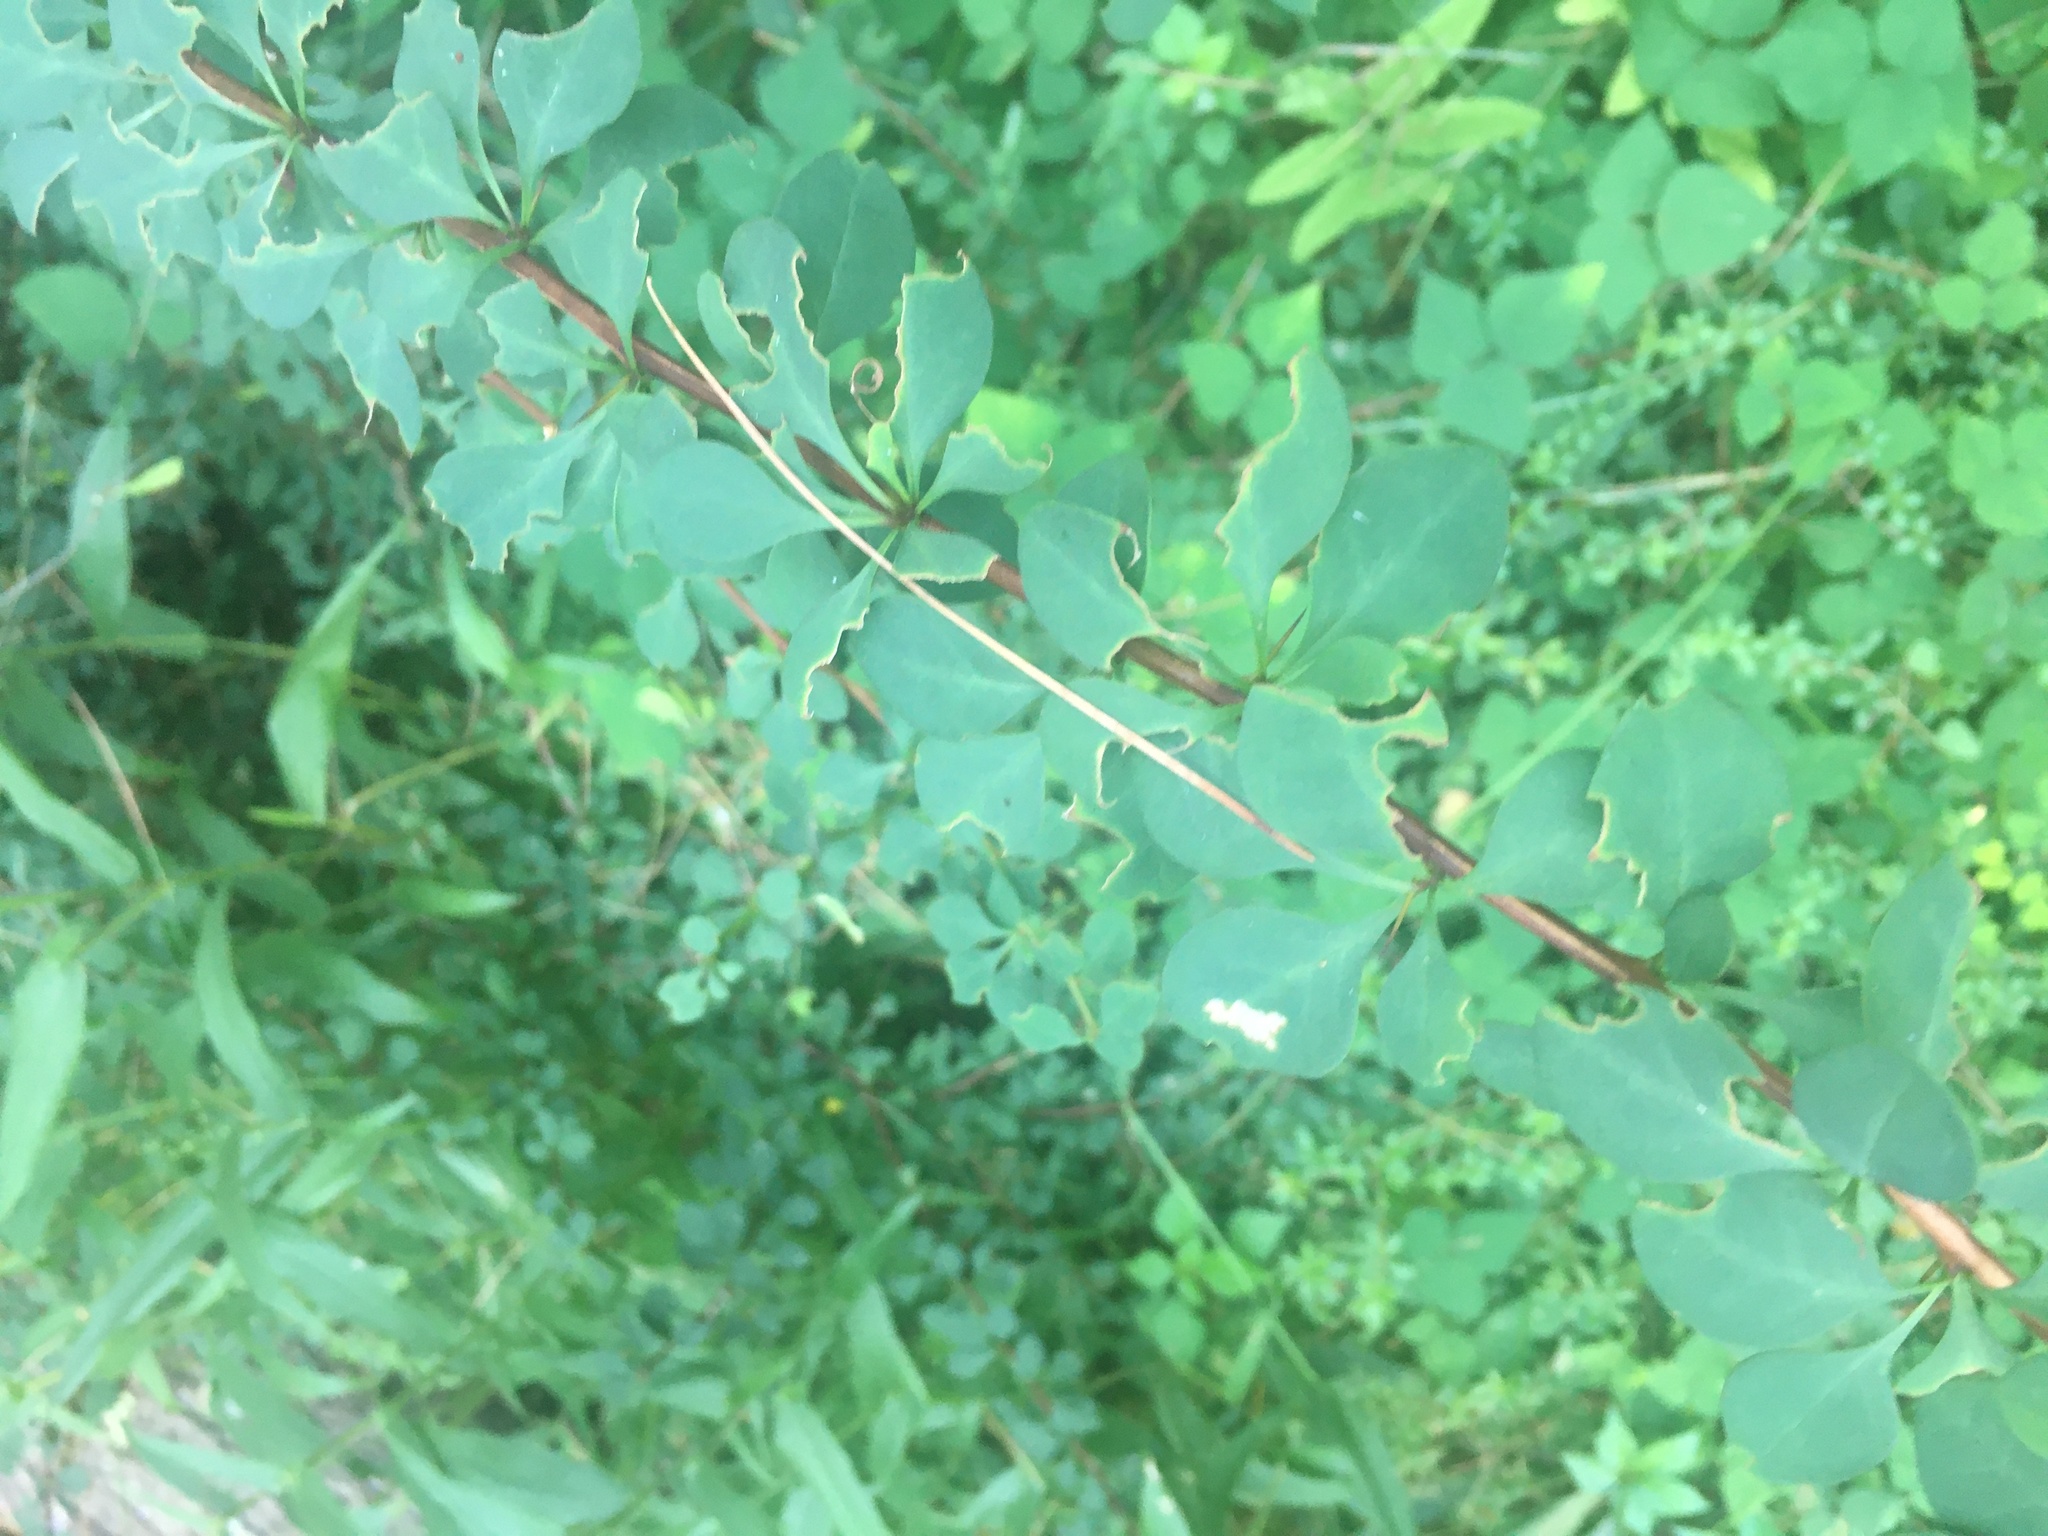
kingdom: Plantae
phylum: Tracheophyta
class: Magnoliopsida
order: Ranunculales
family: Berberidaceae
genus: Berberis
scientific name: Berberis thunbergii
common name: Japanese barberry
